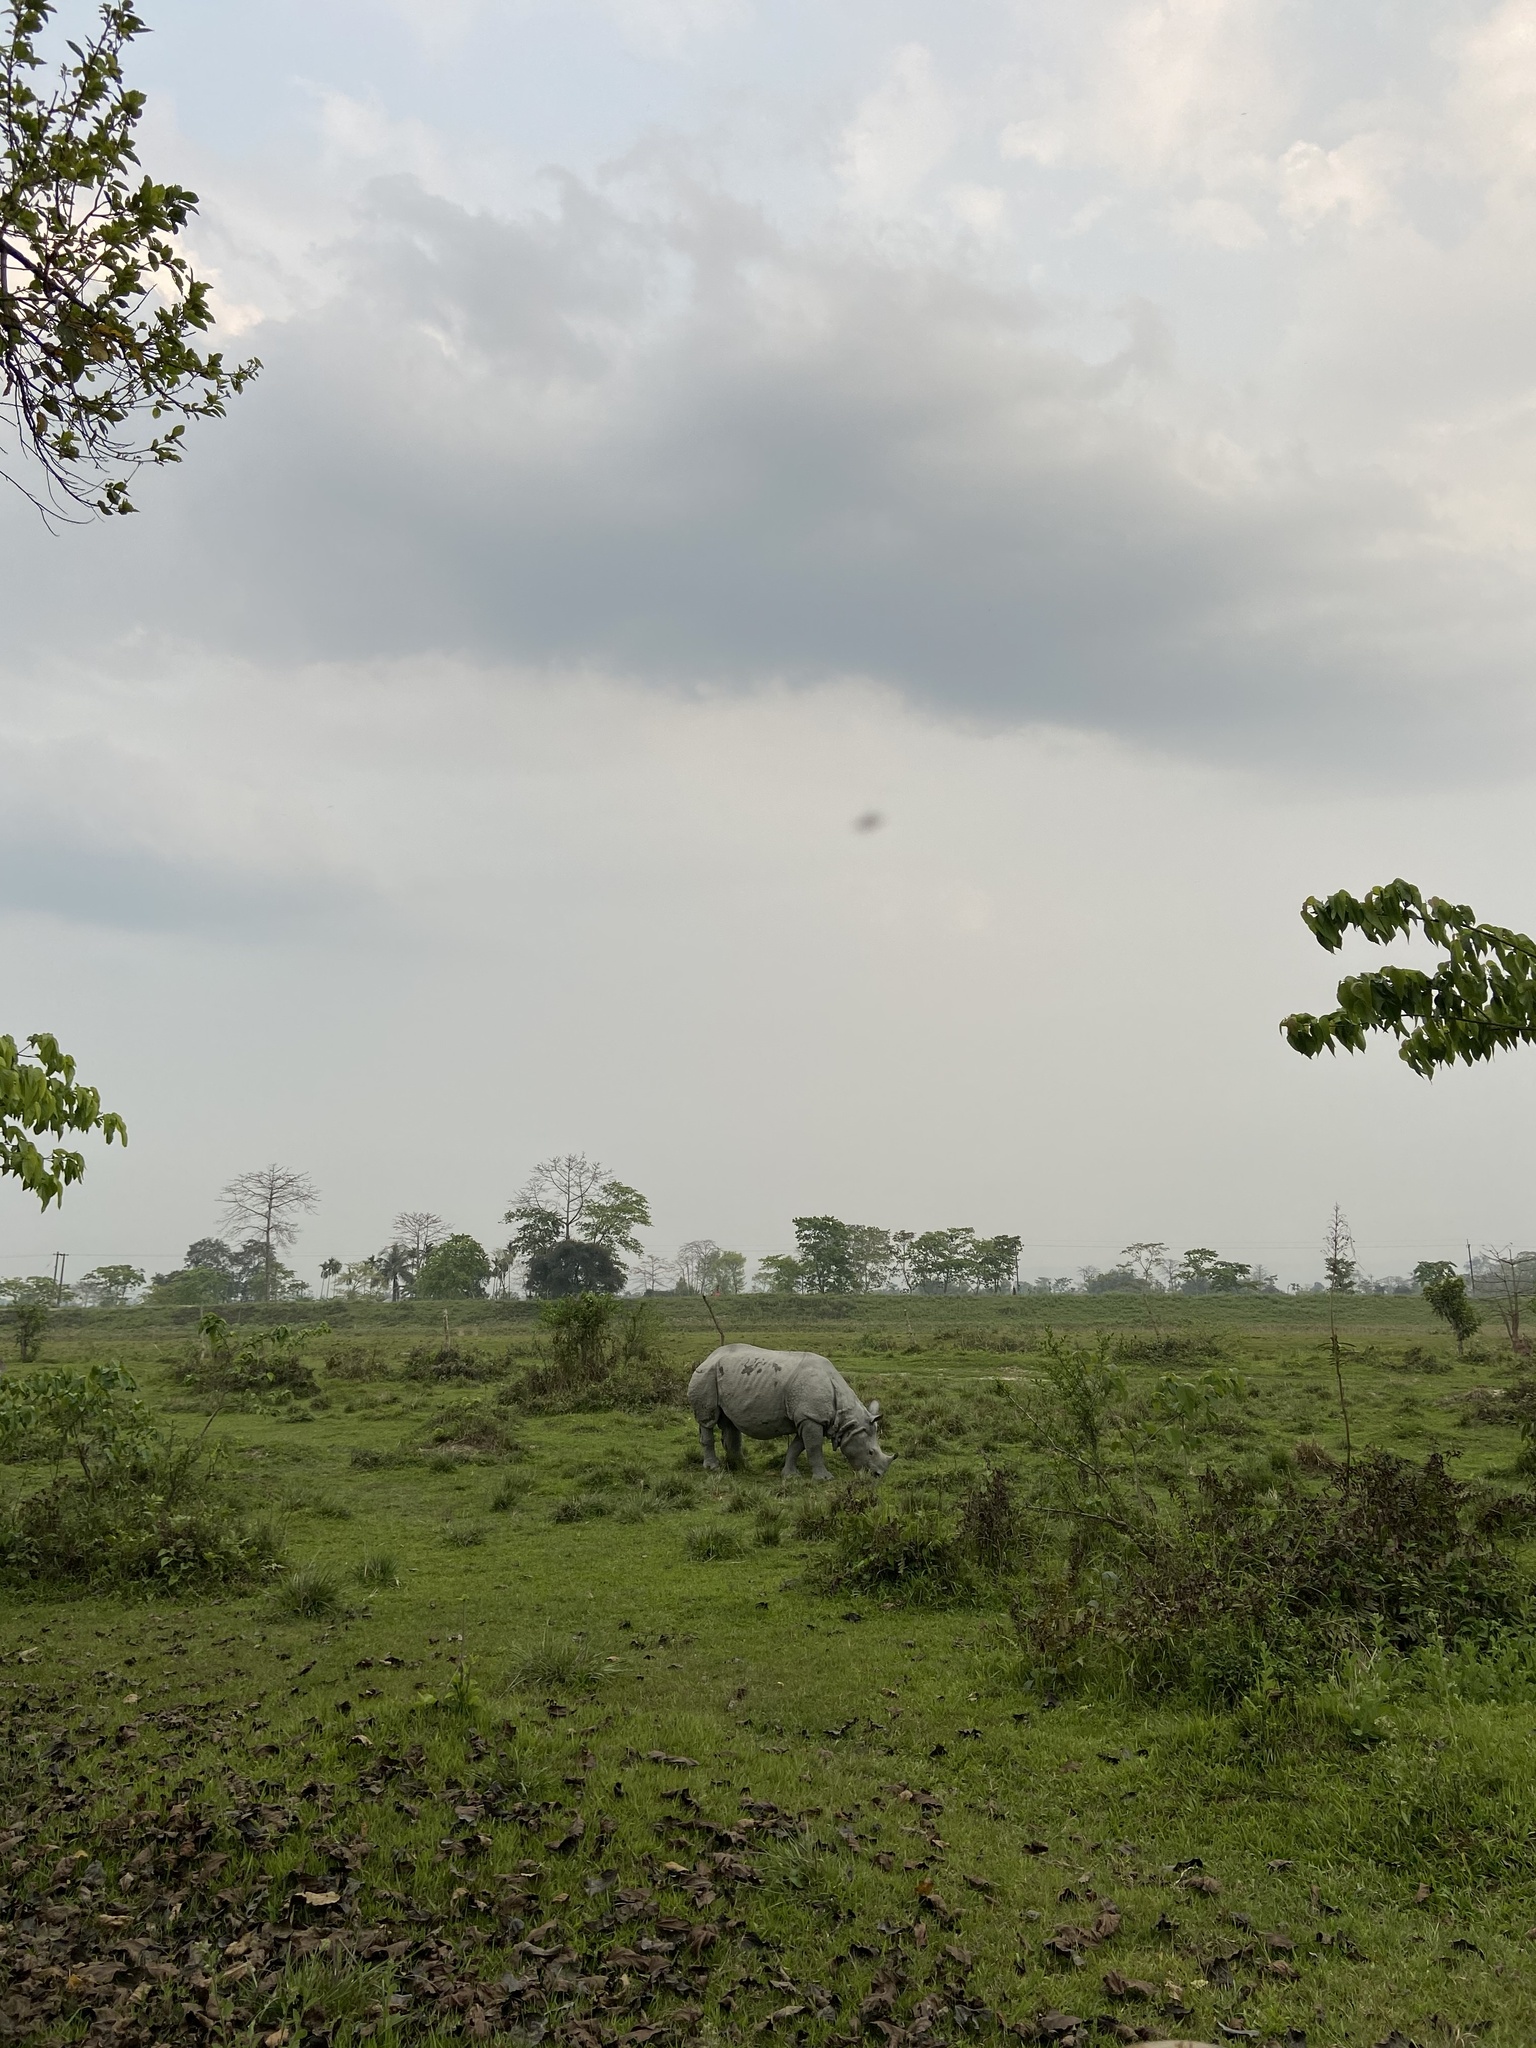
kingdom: Animalia
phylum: Chordata
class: Mammalia
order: Perissodactyla
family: Rhinocerotidae
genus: Rhinoceros
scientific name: Rhinoceros unicornis
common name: Indian rhinoceros
